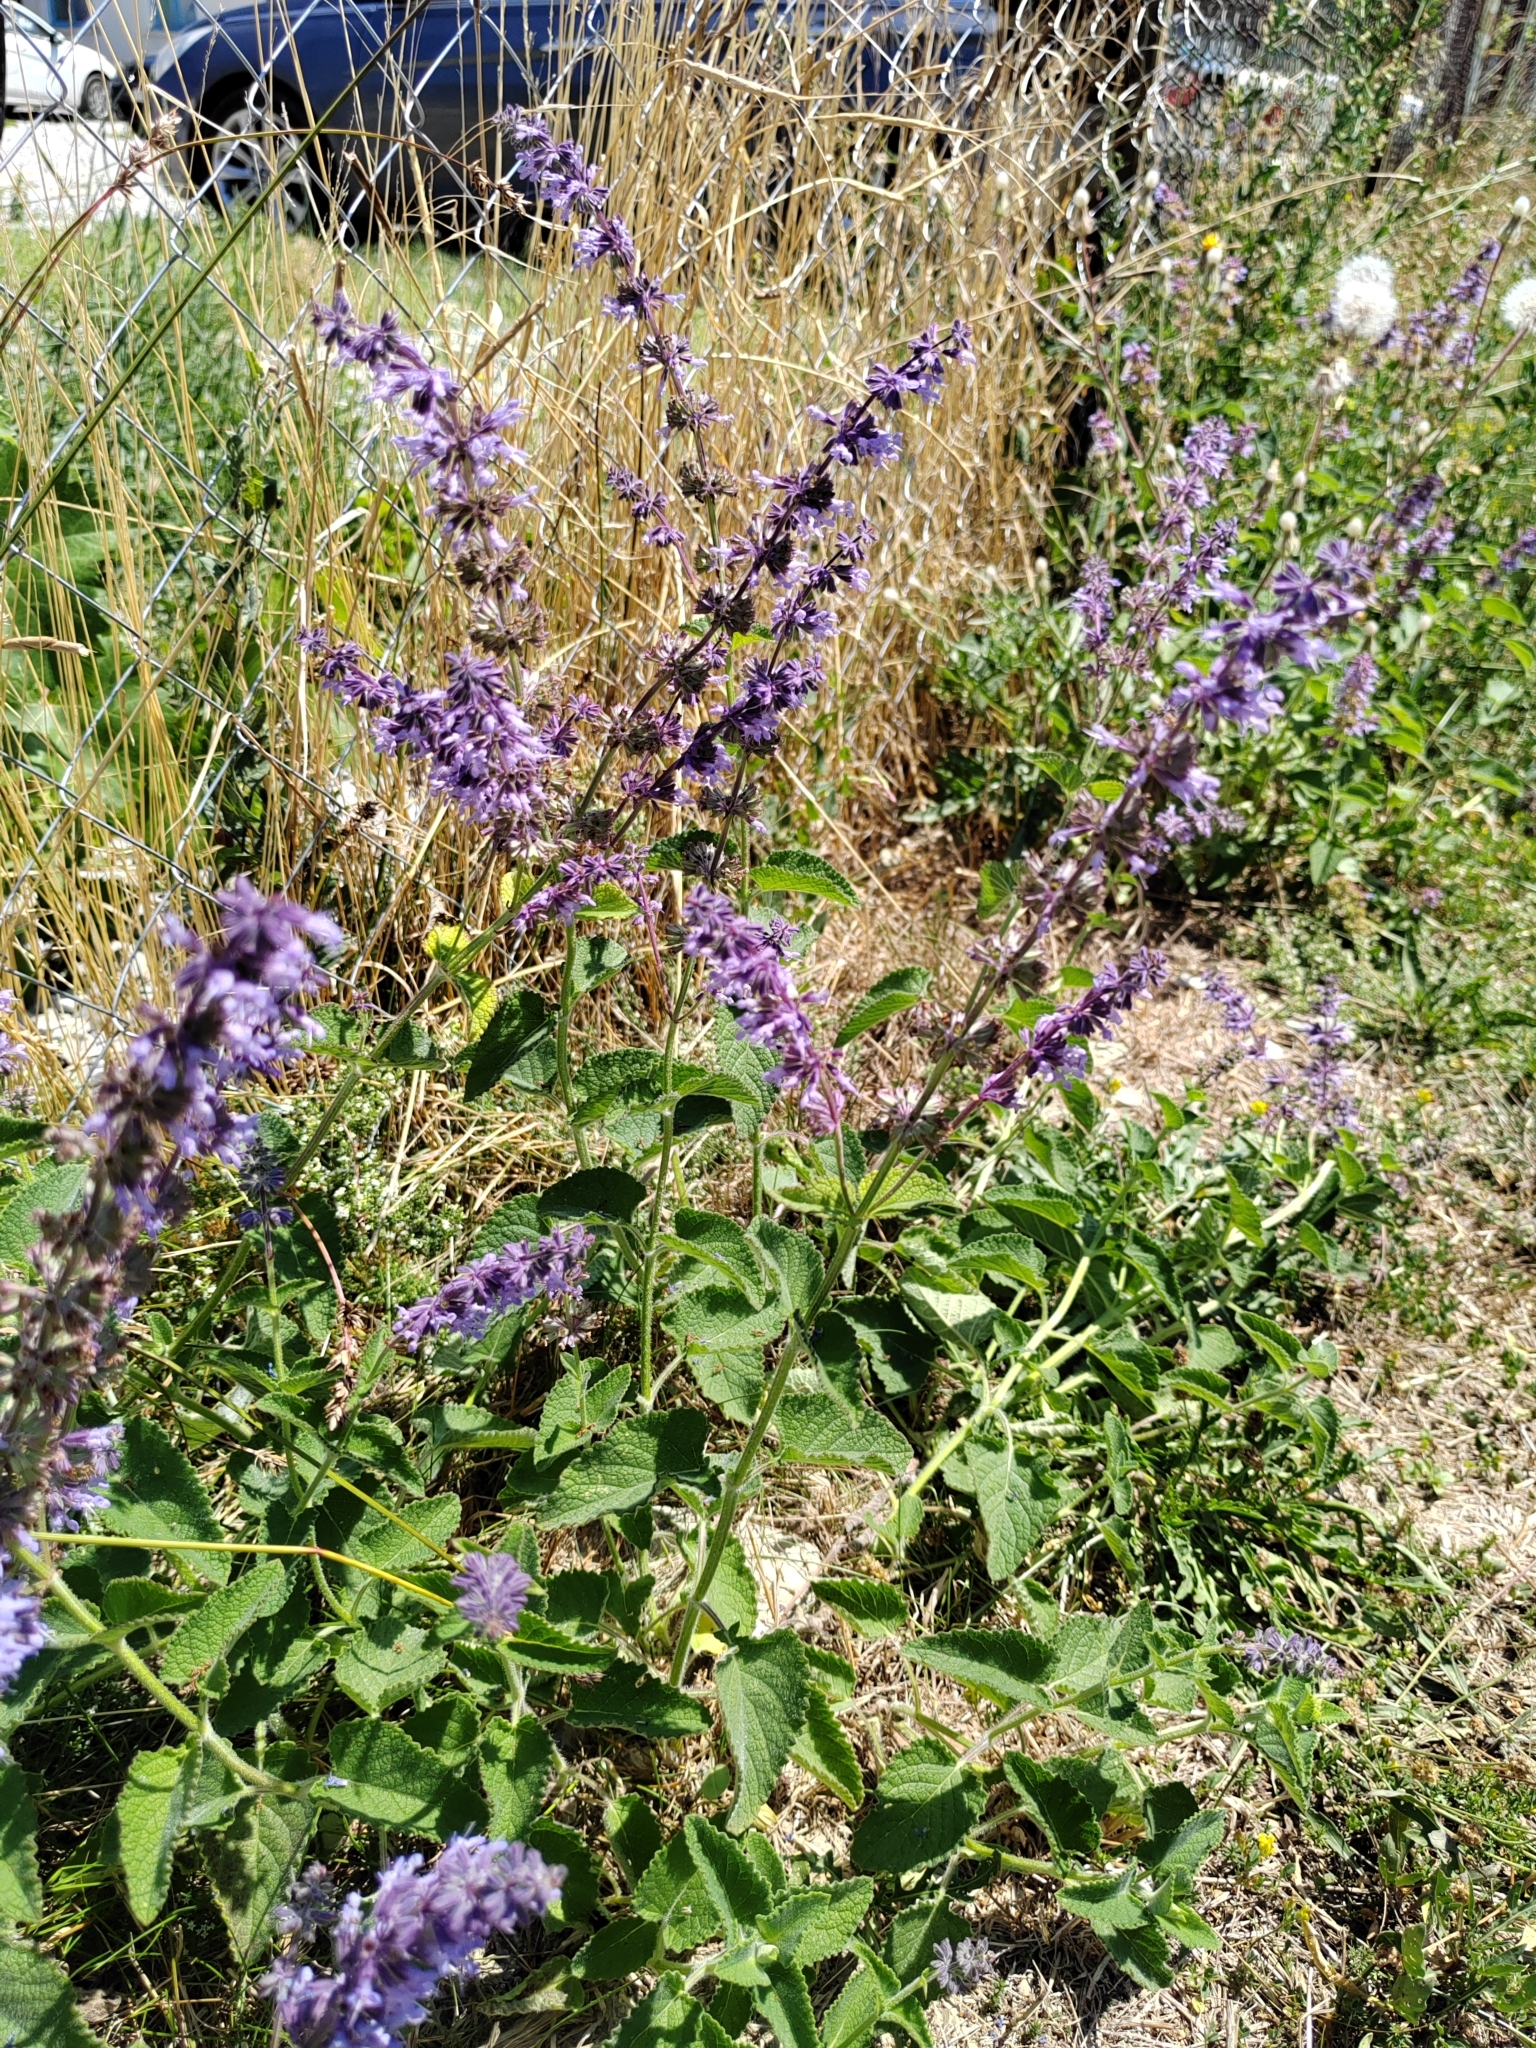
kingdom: Plantae
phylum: Tracheophyta
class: Magnoliopsida
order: Lamiales
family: Lamiaceae
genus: Salvia
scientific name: Salvia verticillata
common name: Whorled clary
